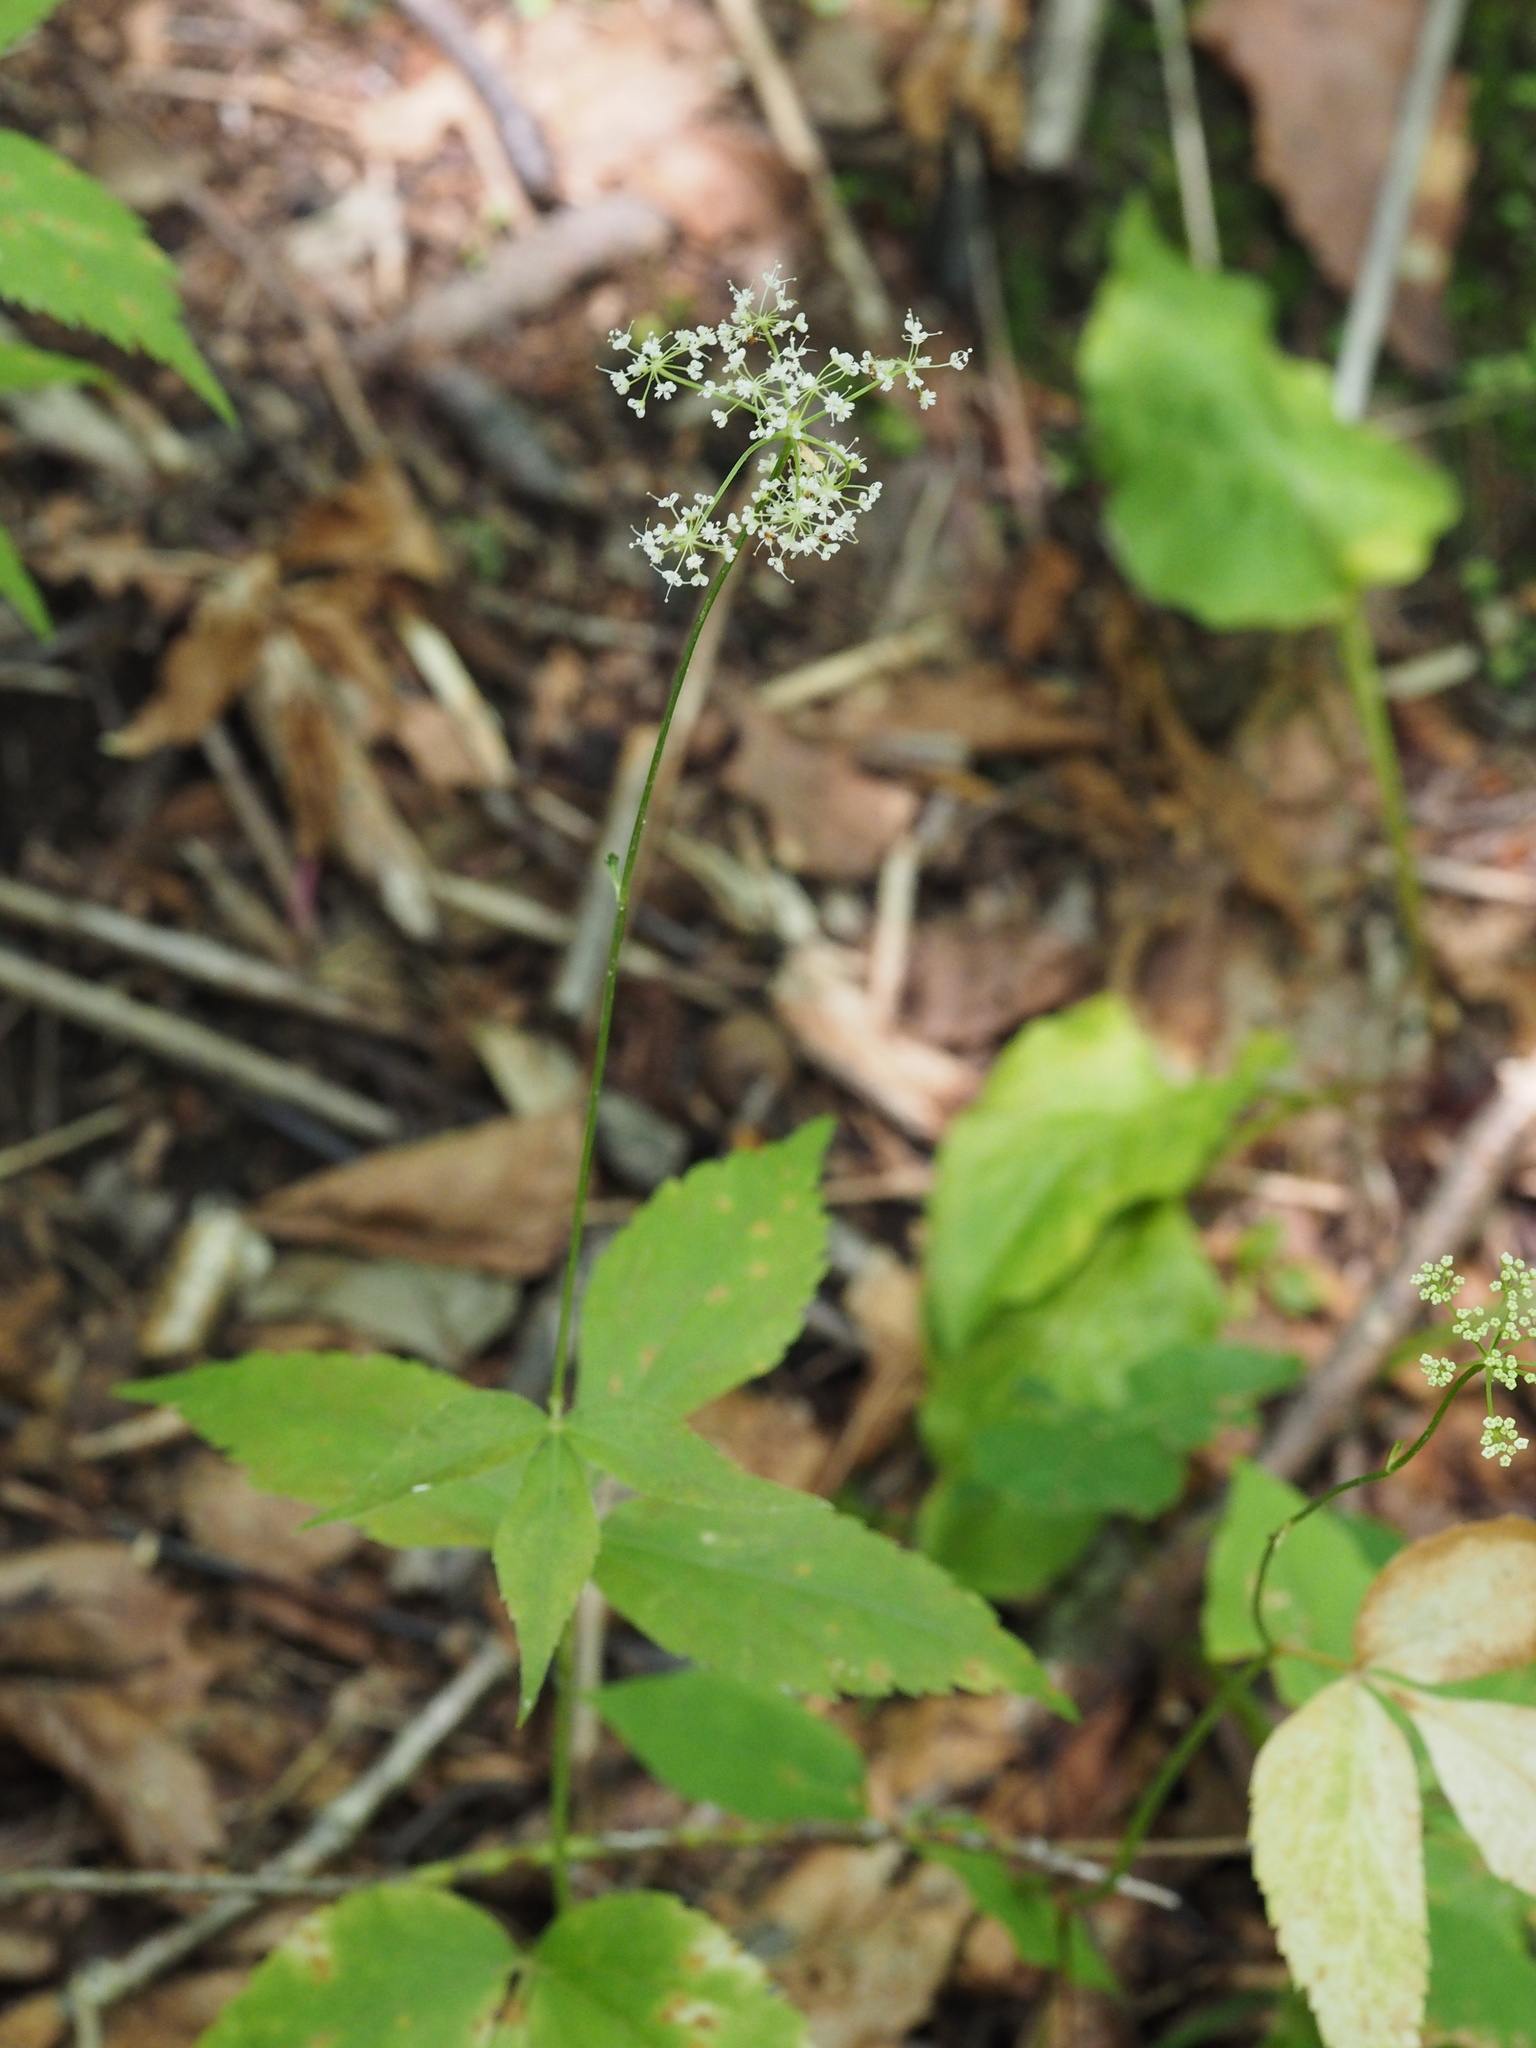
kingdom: Plantae
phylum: Tracheophyta
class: Magnoliopsida
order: Apiales
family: Apiaceae
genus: Spuriopimpinella
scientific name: Spuriopimpinella calycina
